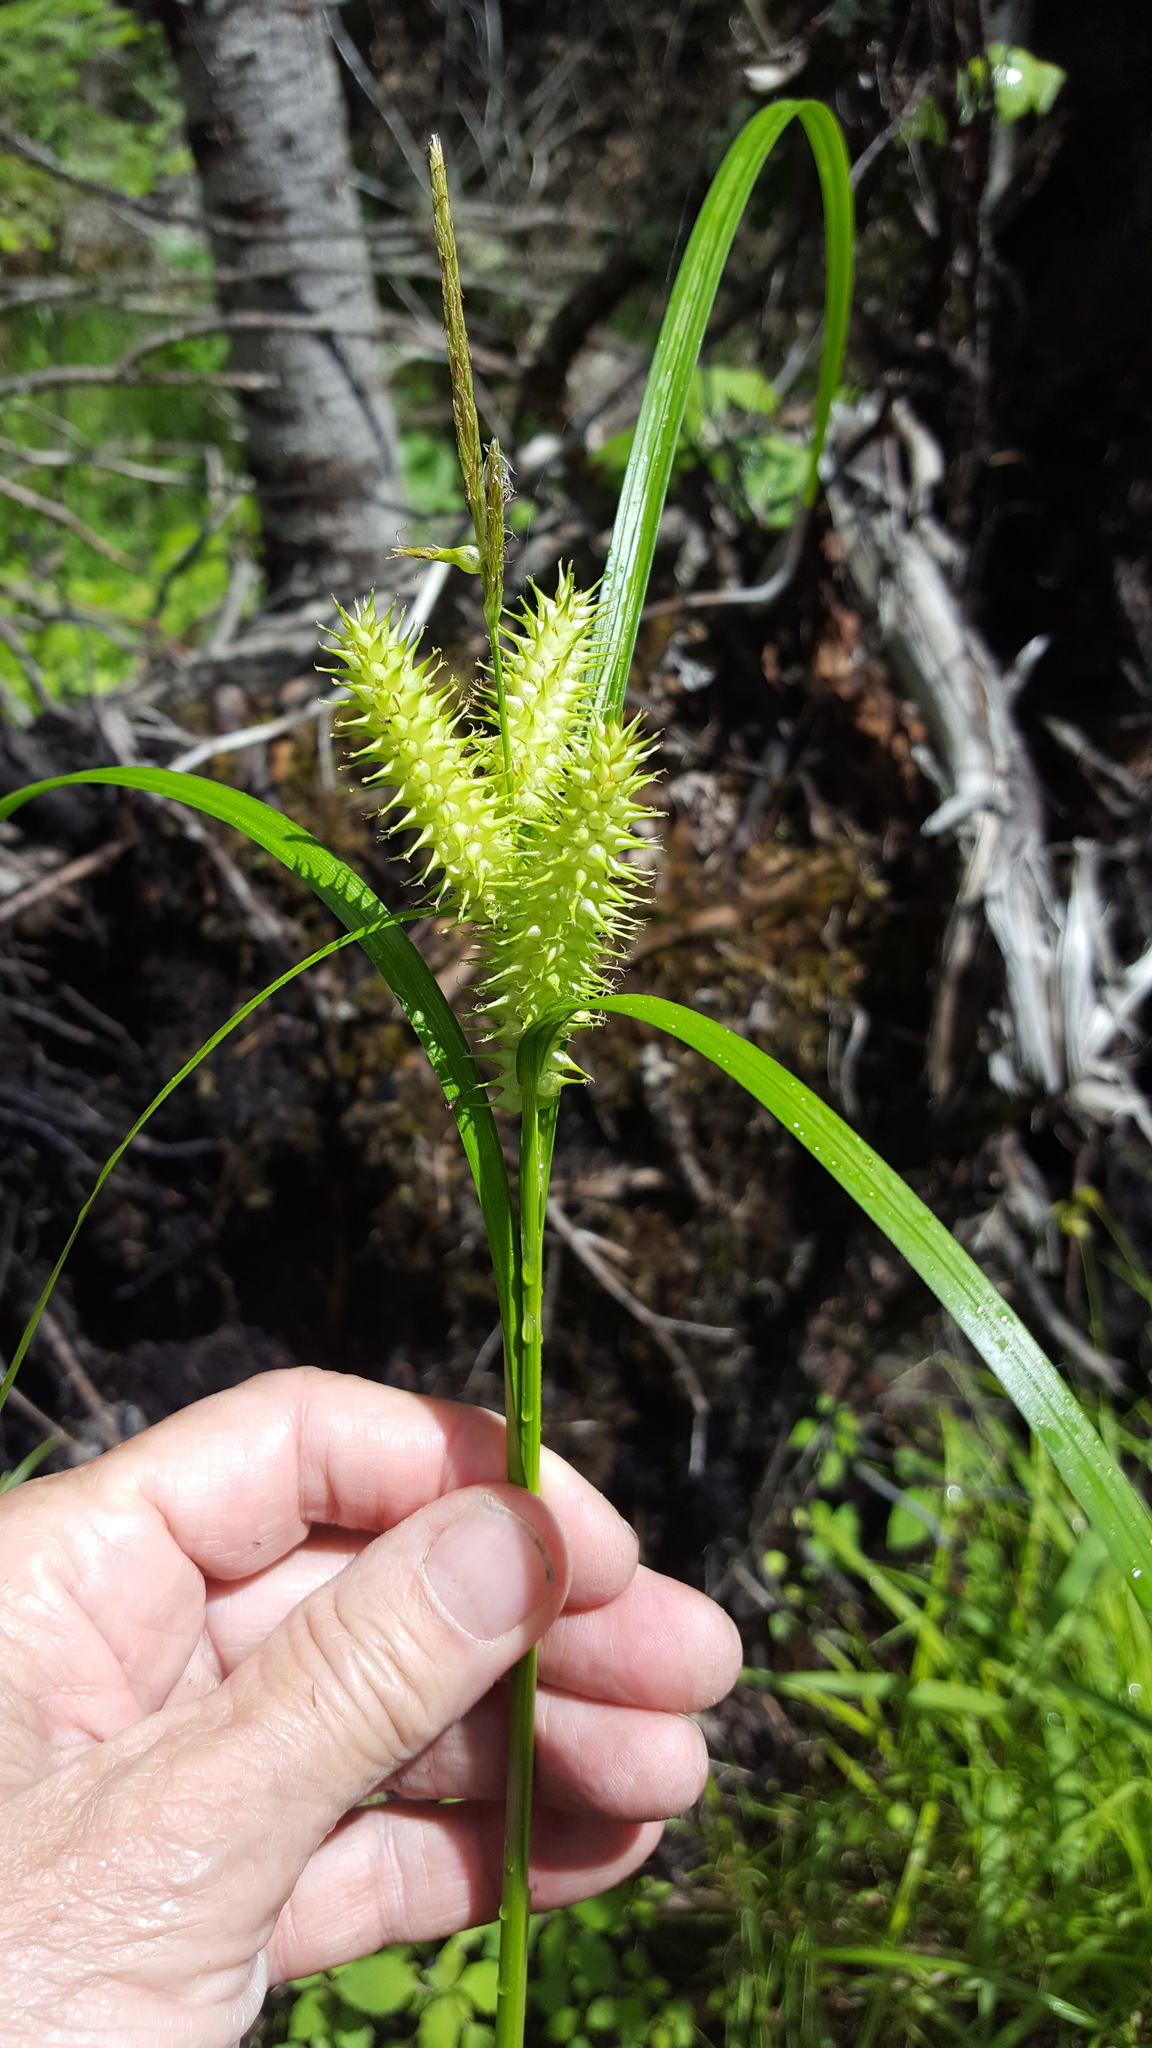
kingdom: Plantae
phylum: Tracheophyta
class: Liliopsida
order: Poales
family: Cyperaceae
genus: Carex
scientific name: Carex retrorsa
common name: Knot-sheath sedge
